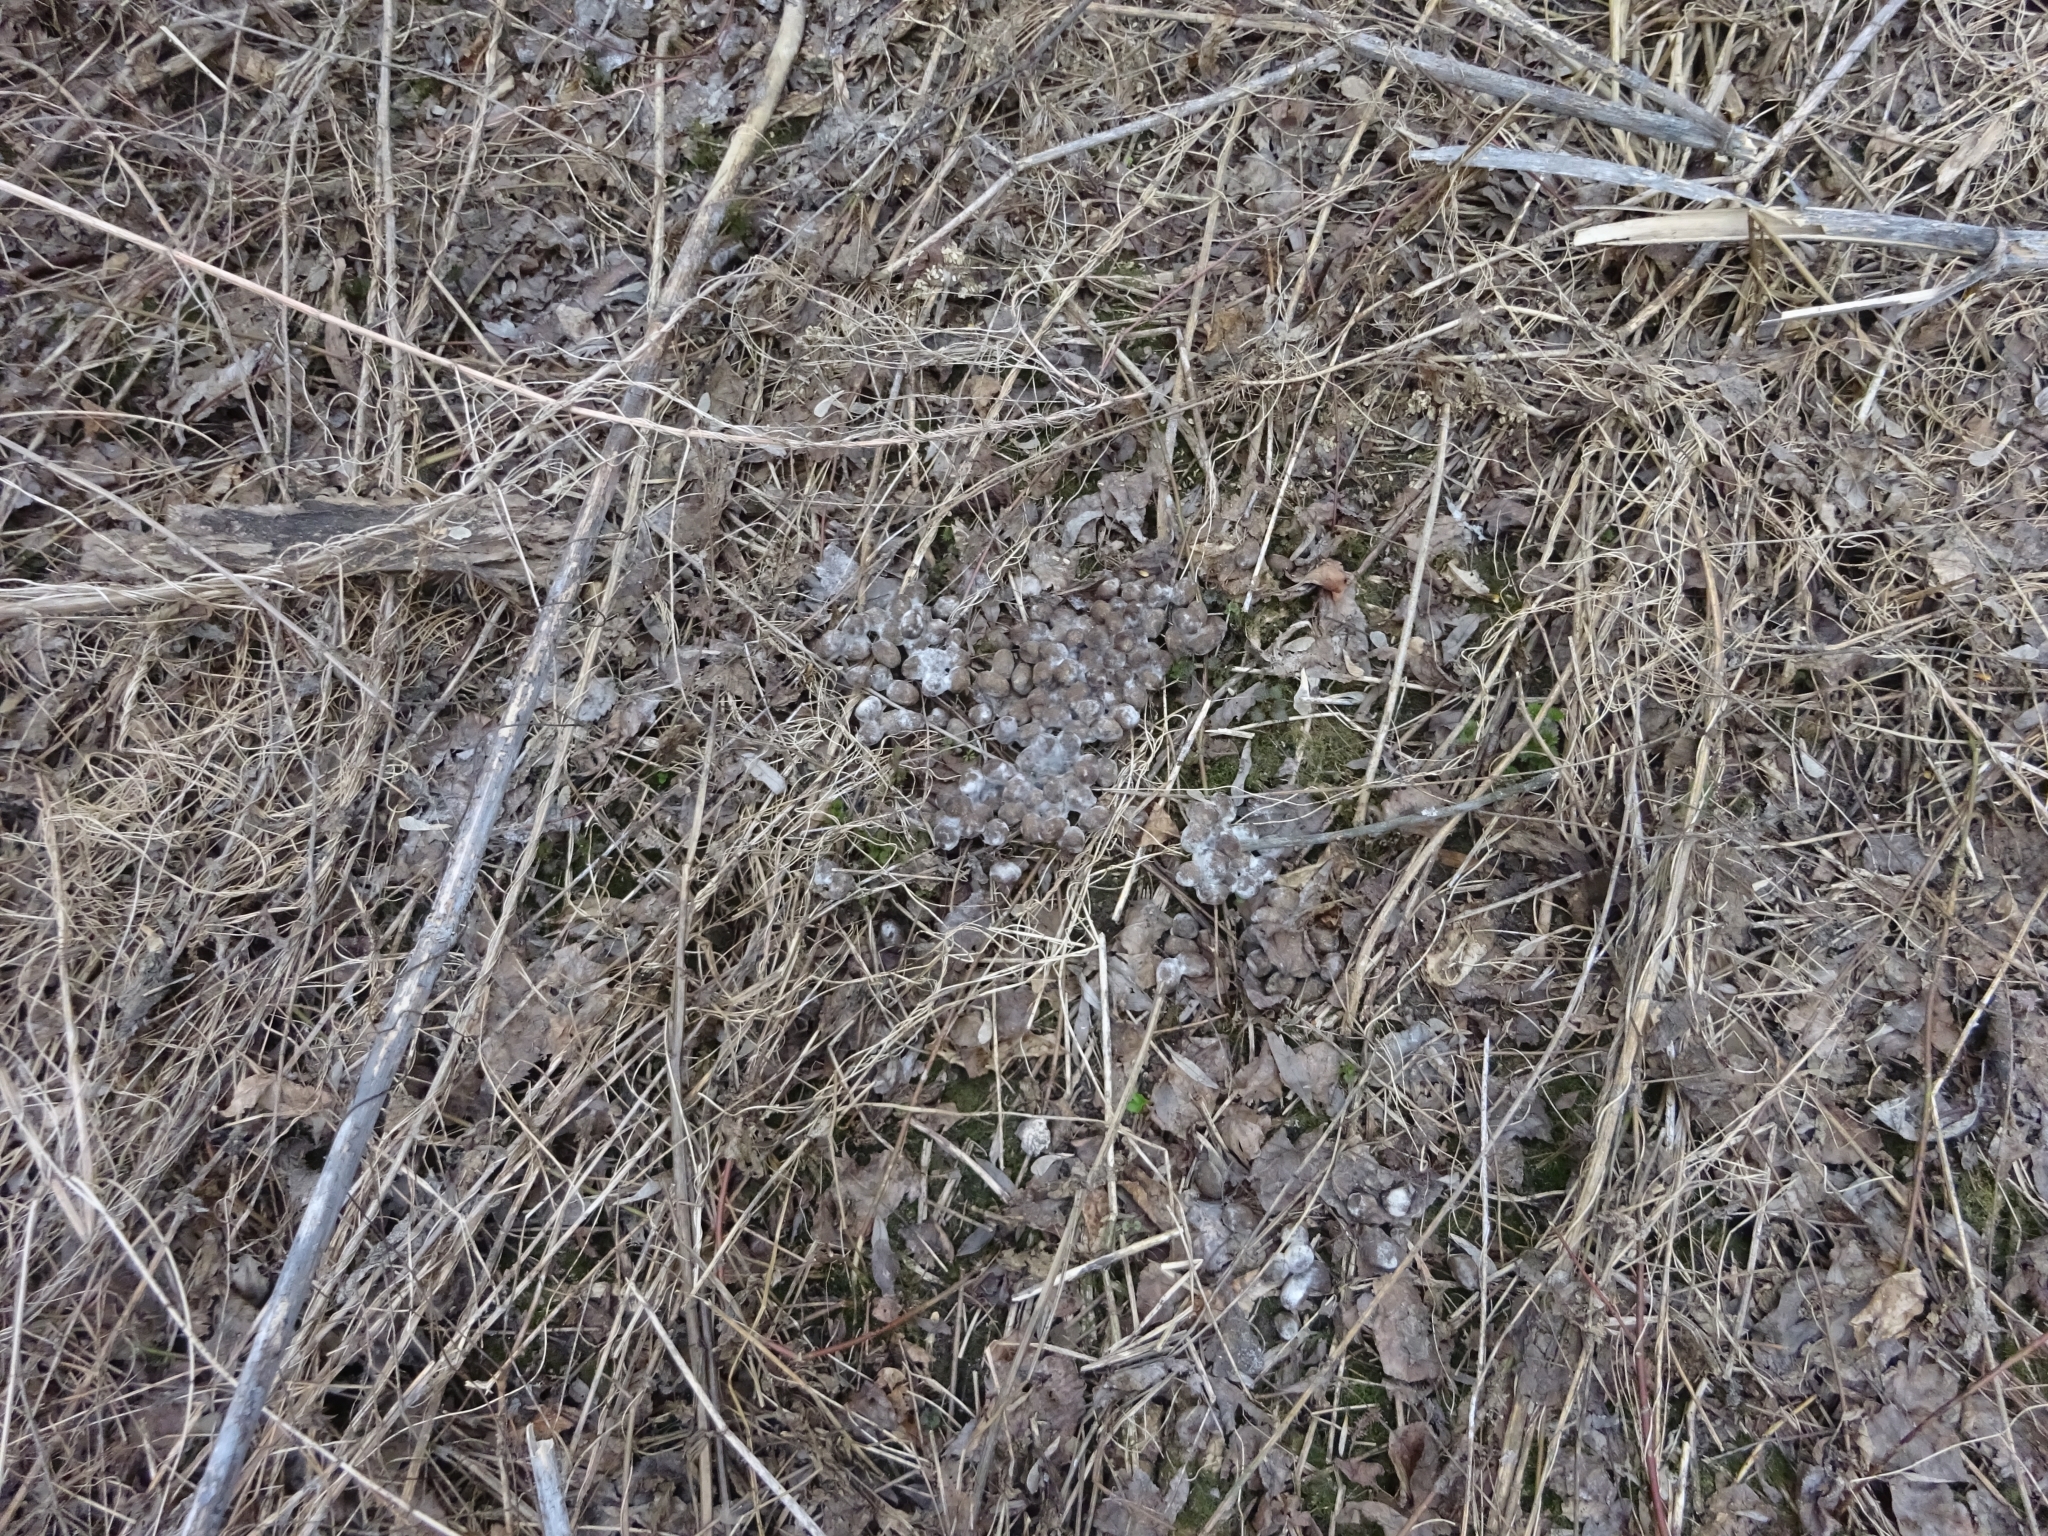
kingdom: Animalia
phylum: Chordata
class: Mammalia
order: Artiodactyla
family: Cervidae
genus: Alces
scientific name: Alces alces
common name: Moose
